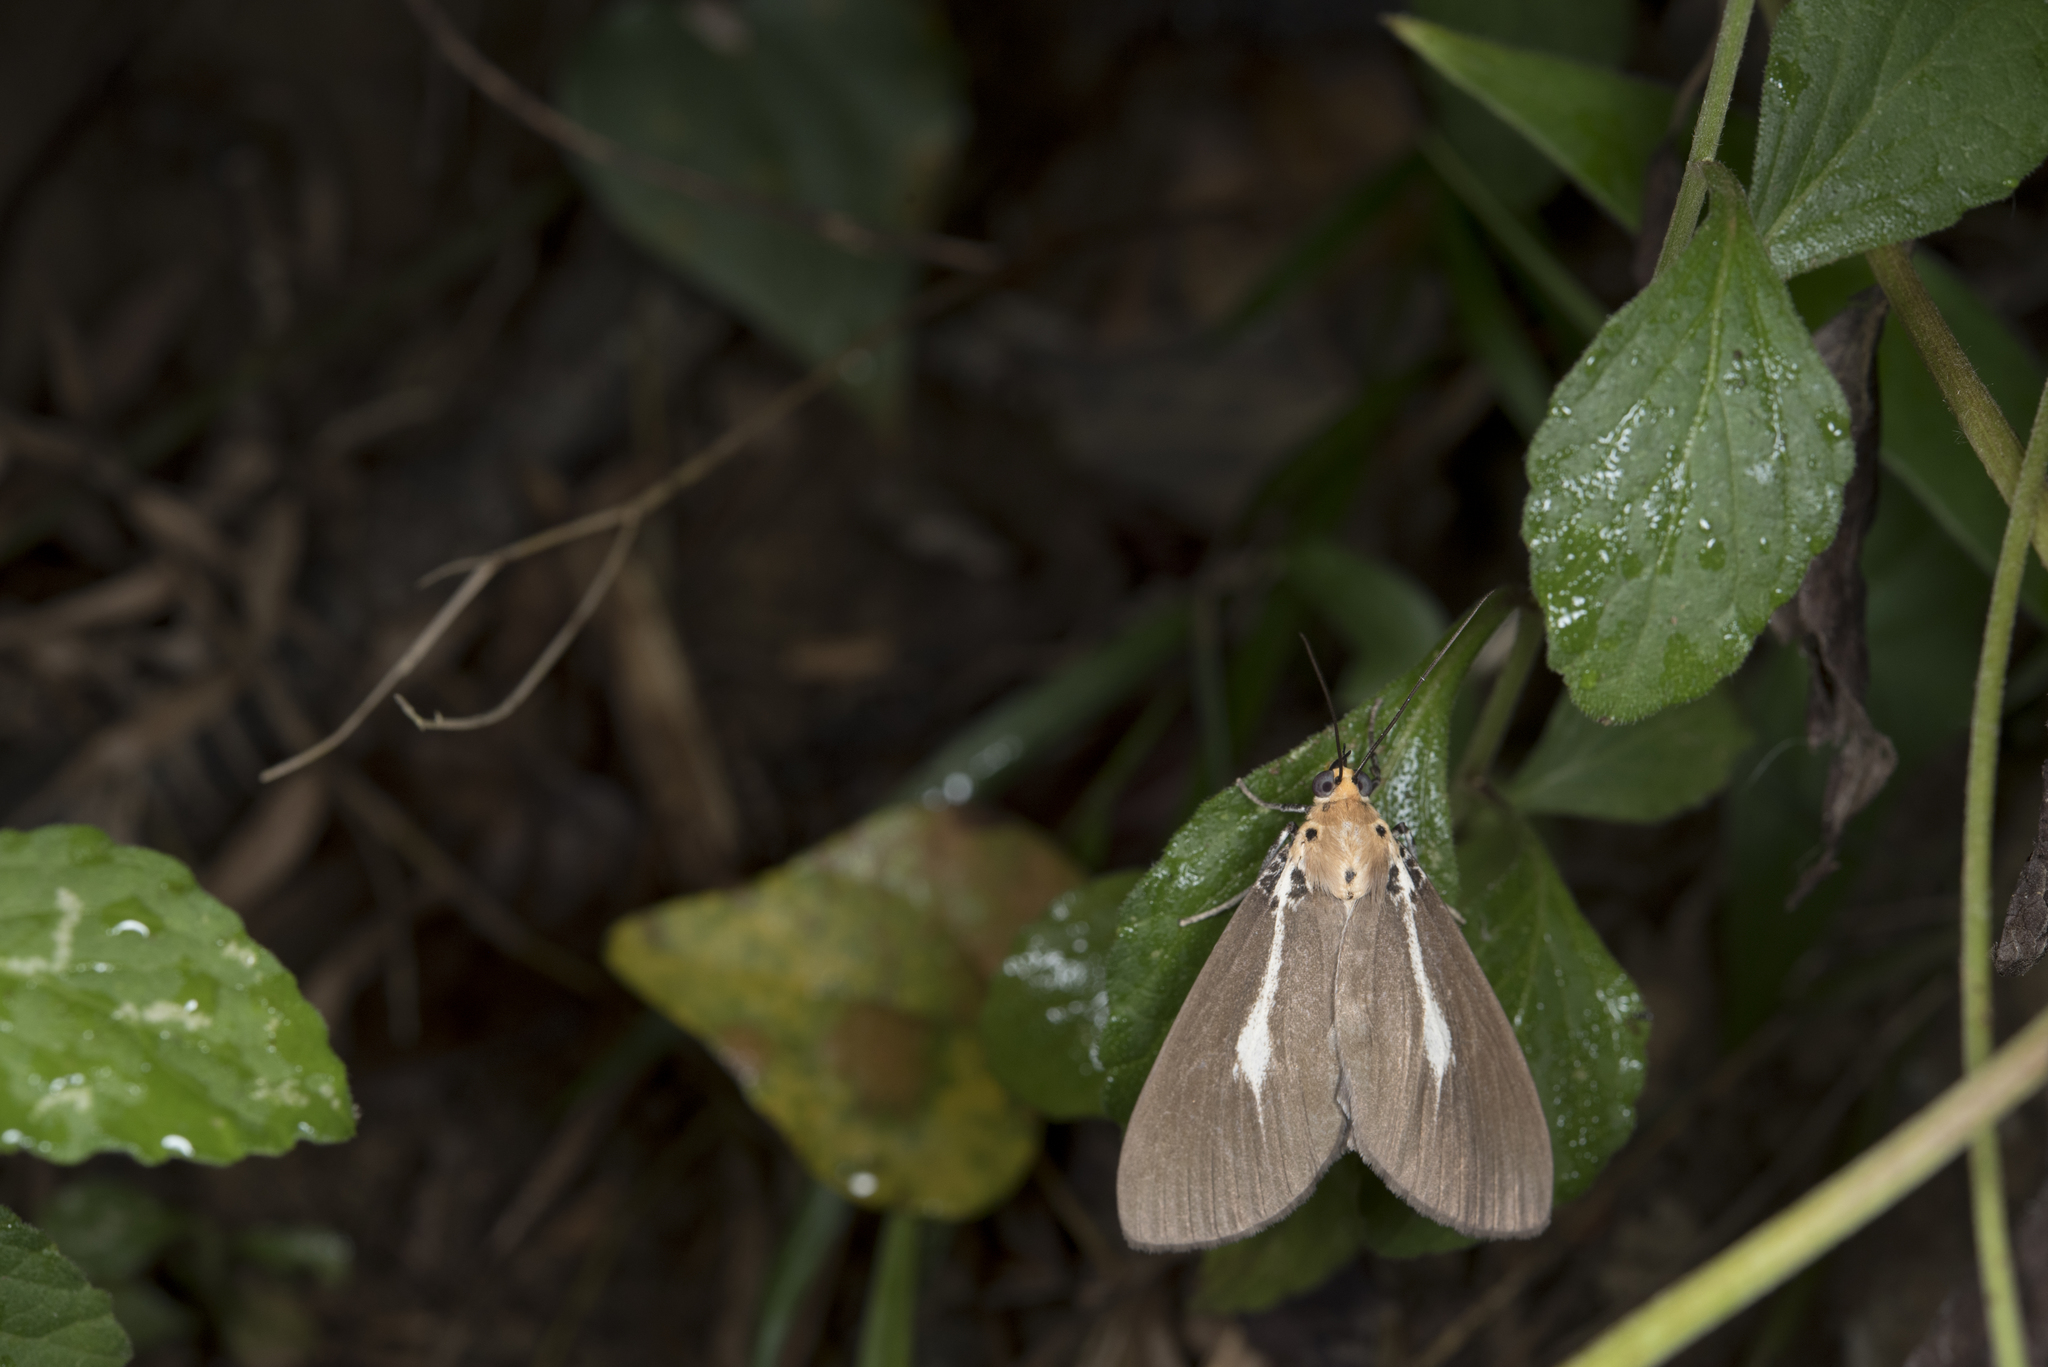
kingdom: Animalia
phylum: Arthropoda
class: Insecta
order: Lepidoptera
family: Erebidae
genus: Asota
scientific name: Asota heliconia
